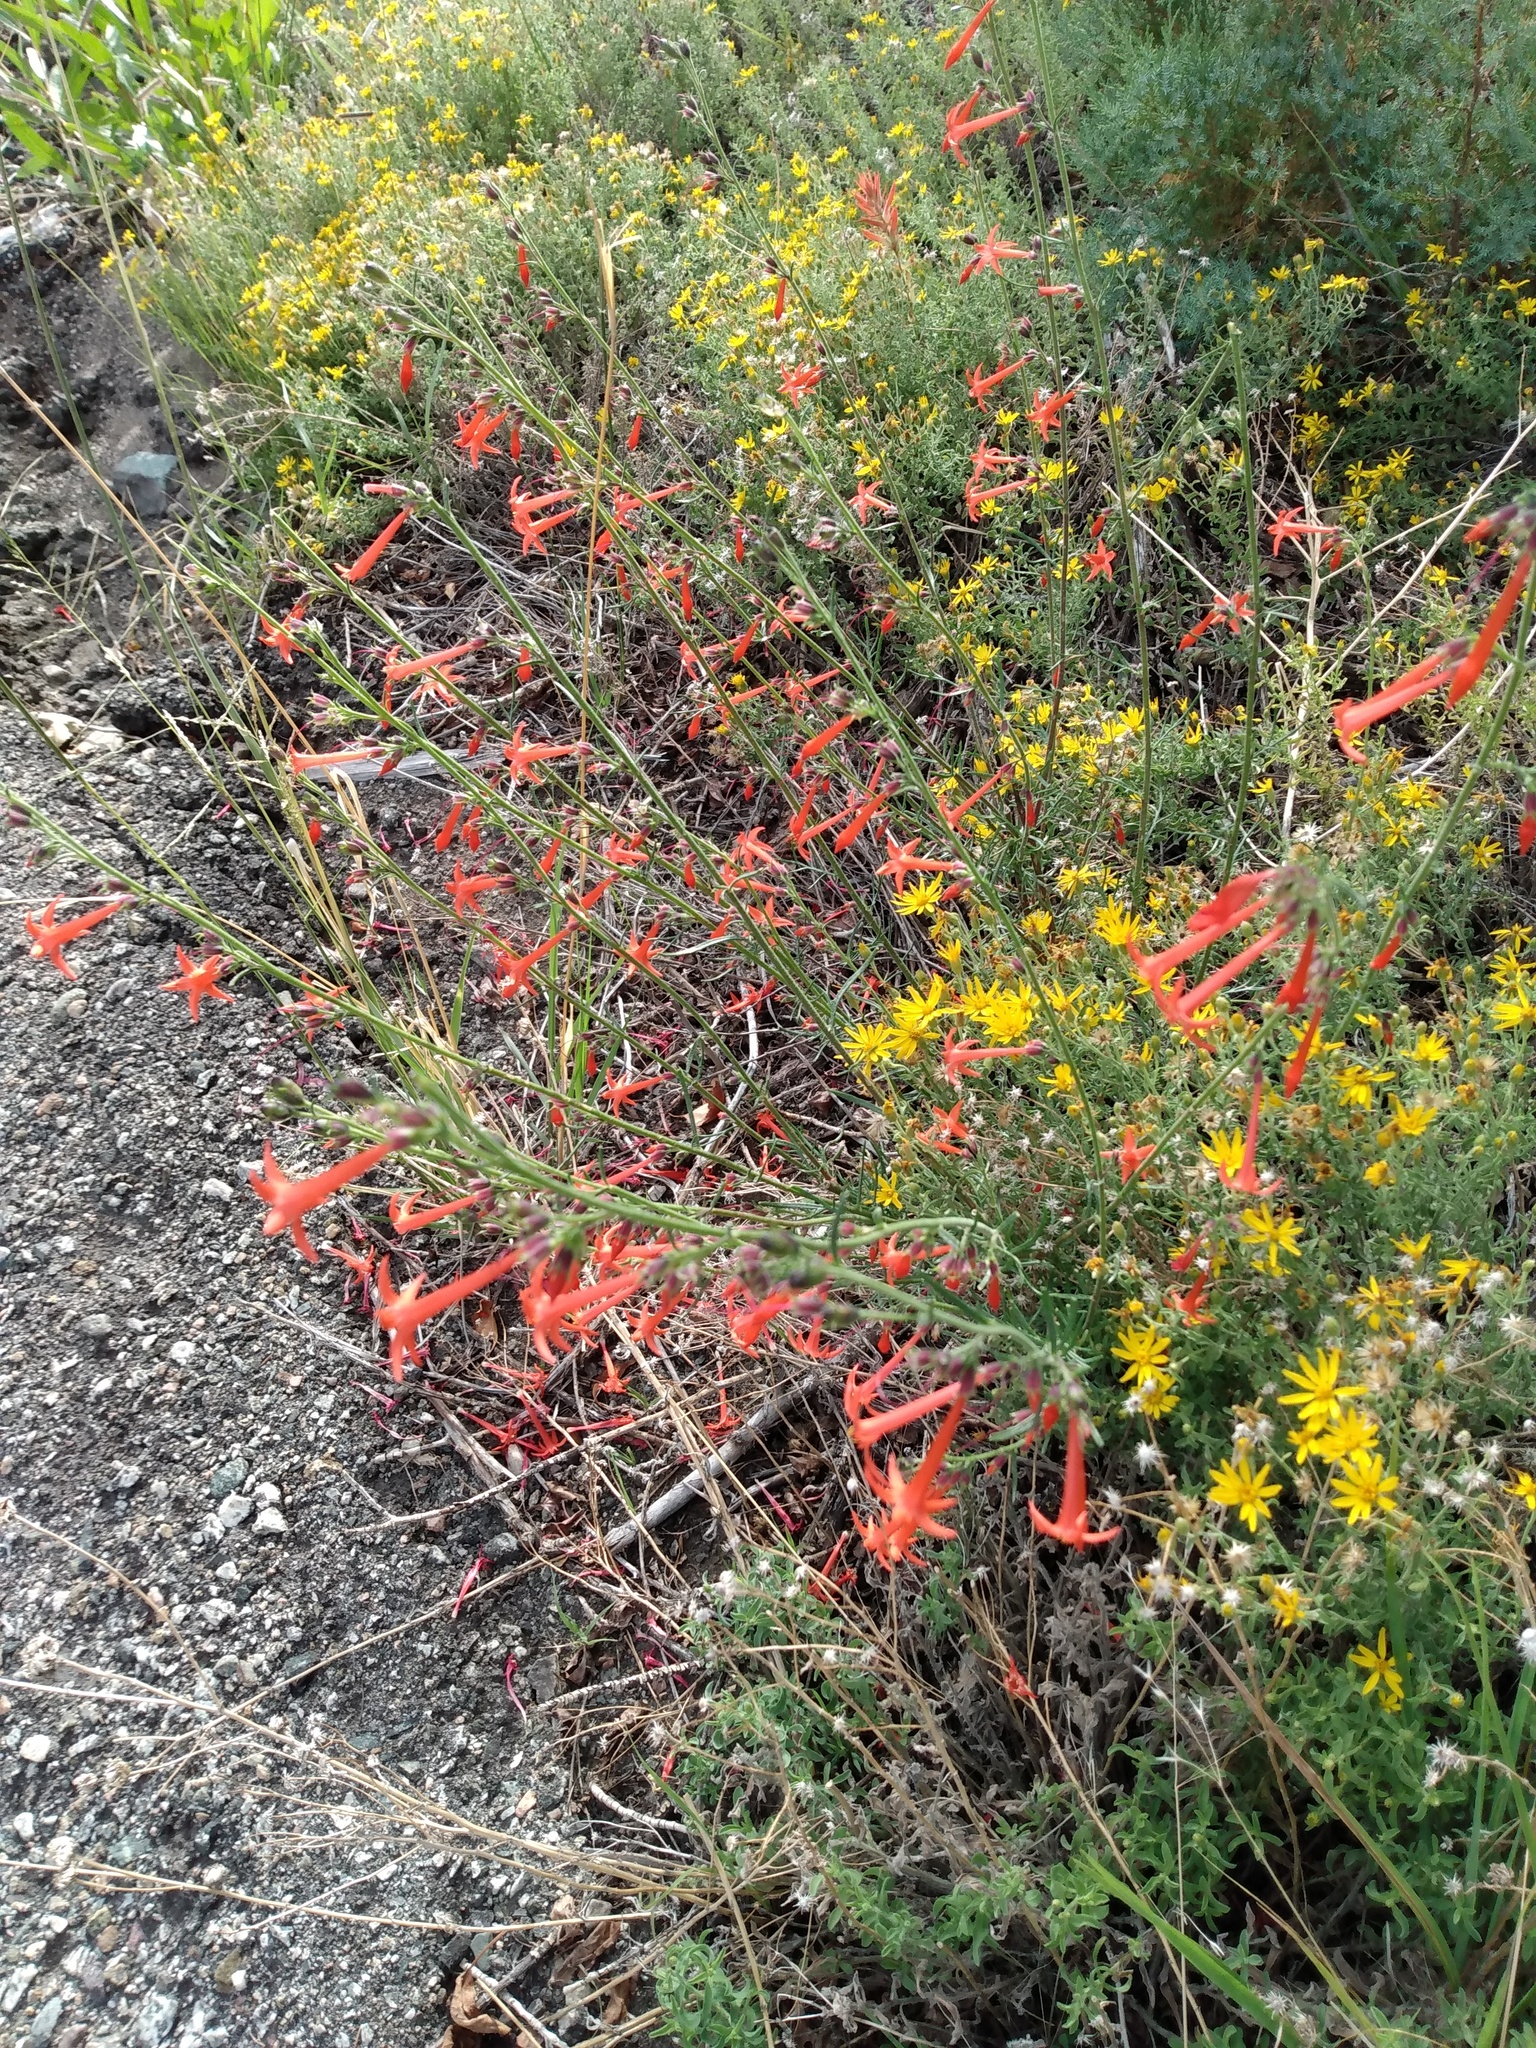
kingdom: Plantae
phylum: Tracheophyta
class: Magnoliopsida
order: Ericales
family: Polemoniaceae
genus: Ipomopsis
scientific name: Ipomopsis aggregata
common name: Scarlet gilia
